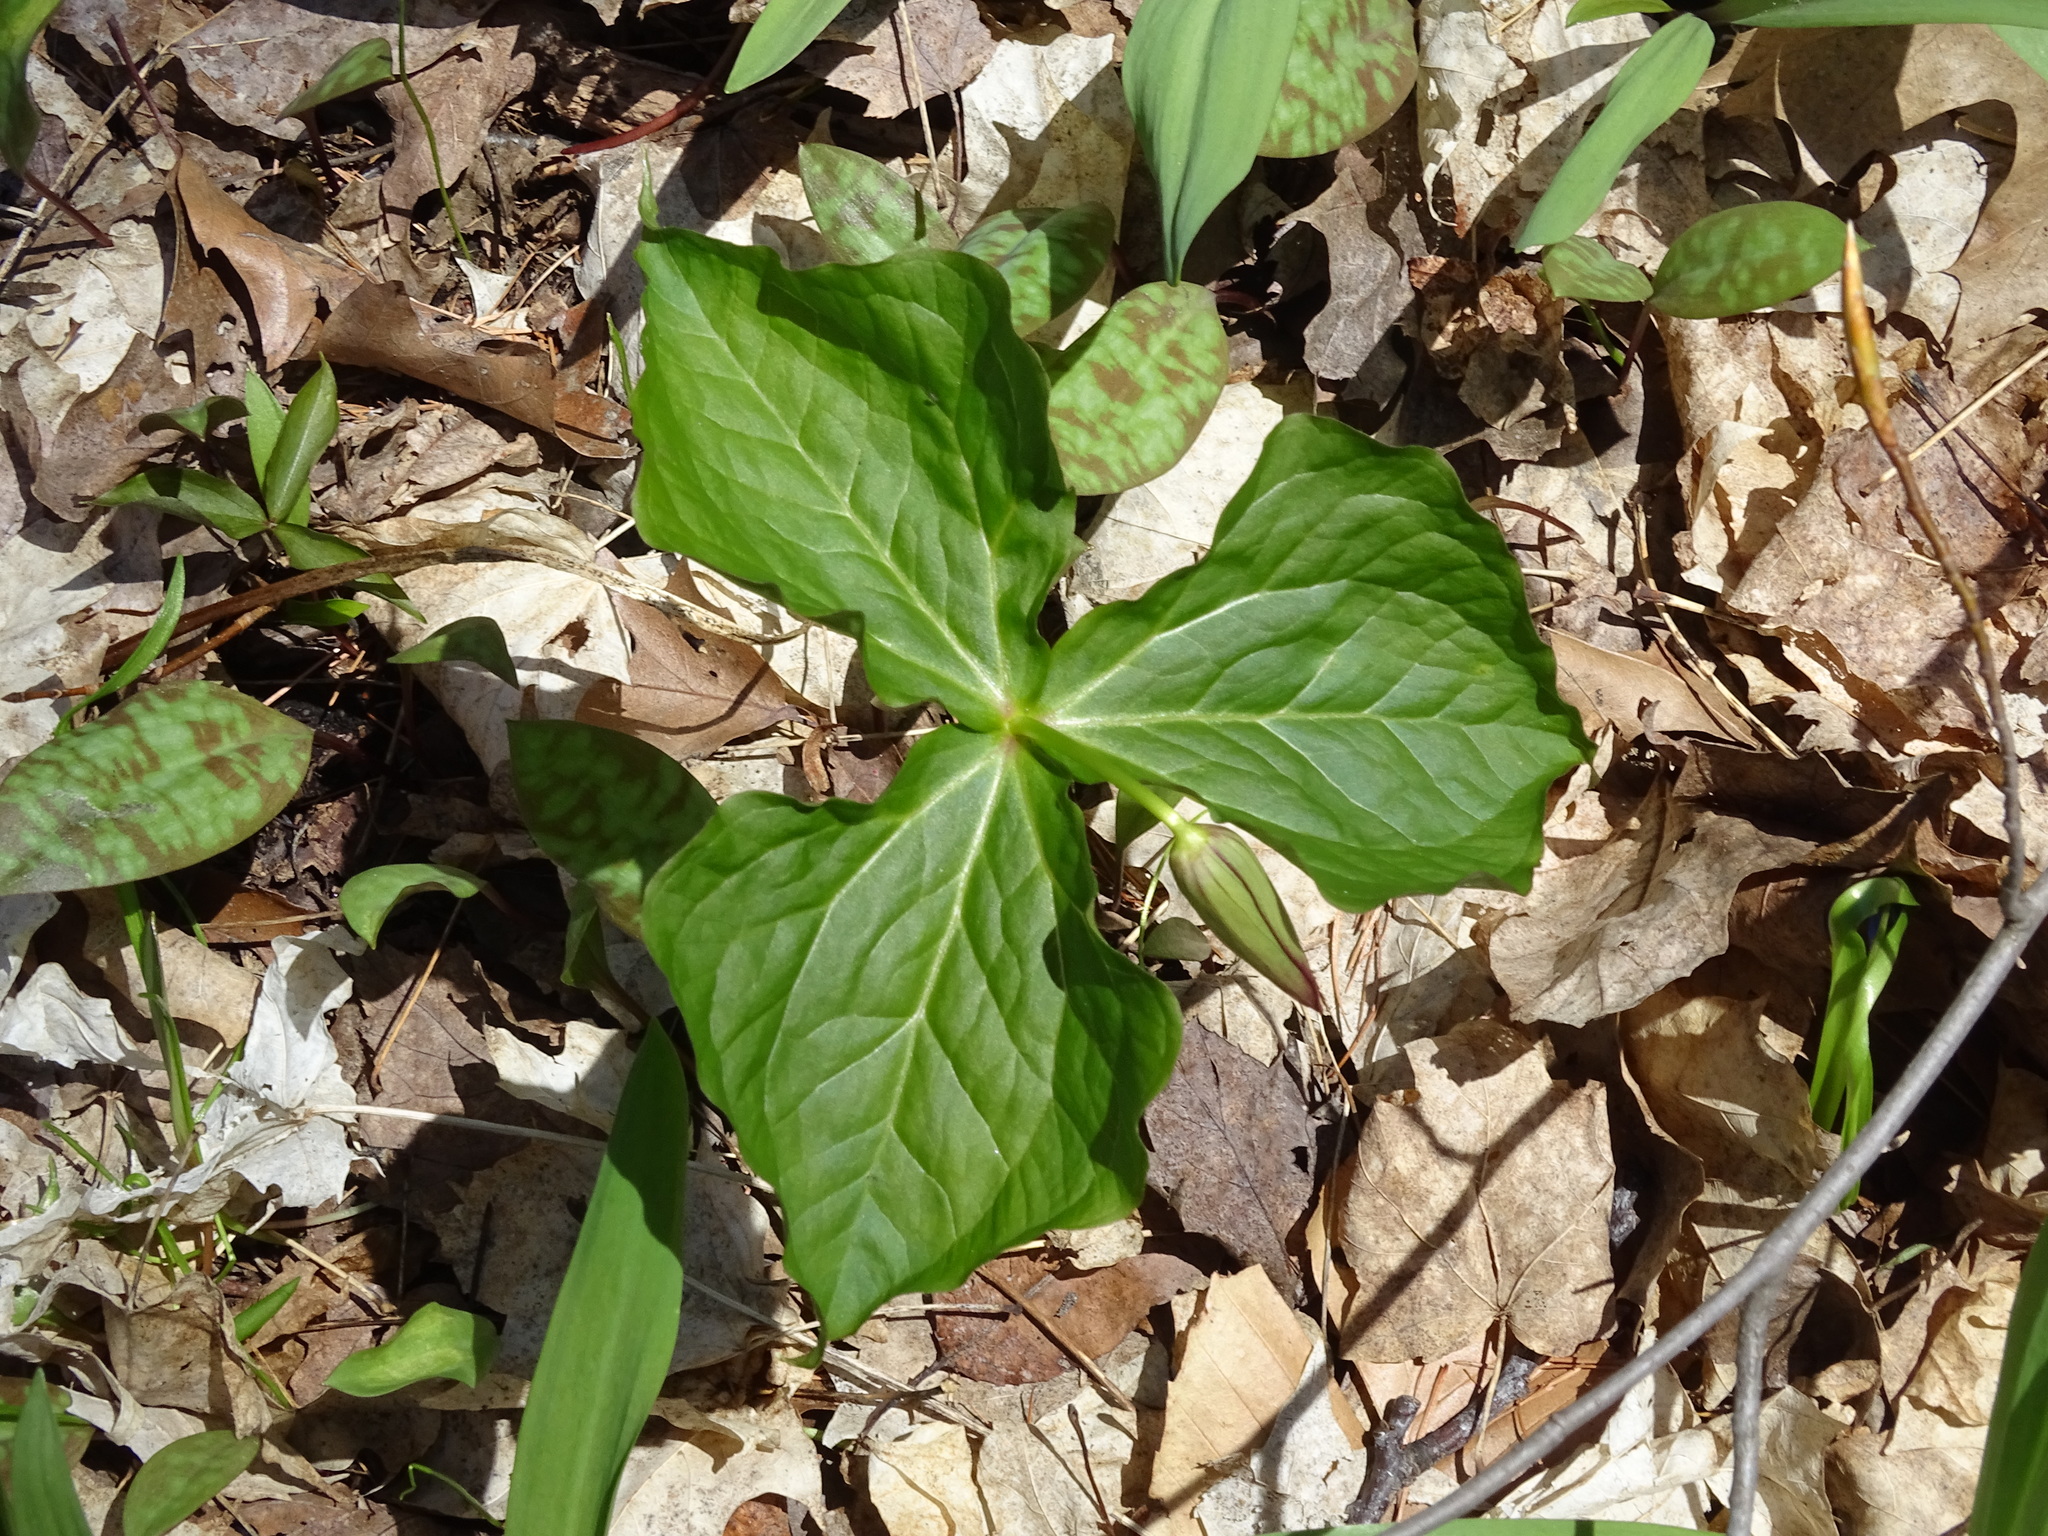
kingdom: Plantae
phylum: Tracheophyta
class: Liliopsida
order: Liliales
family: Melanthiaceae
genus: Trillium
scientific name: Trillium erectum
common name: Purple trillium
